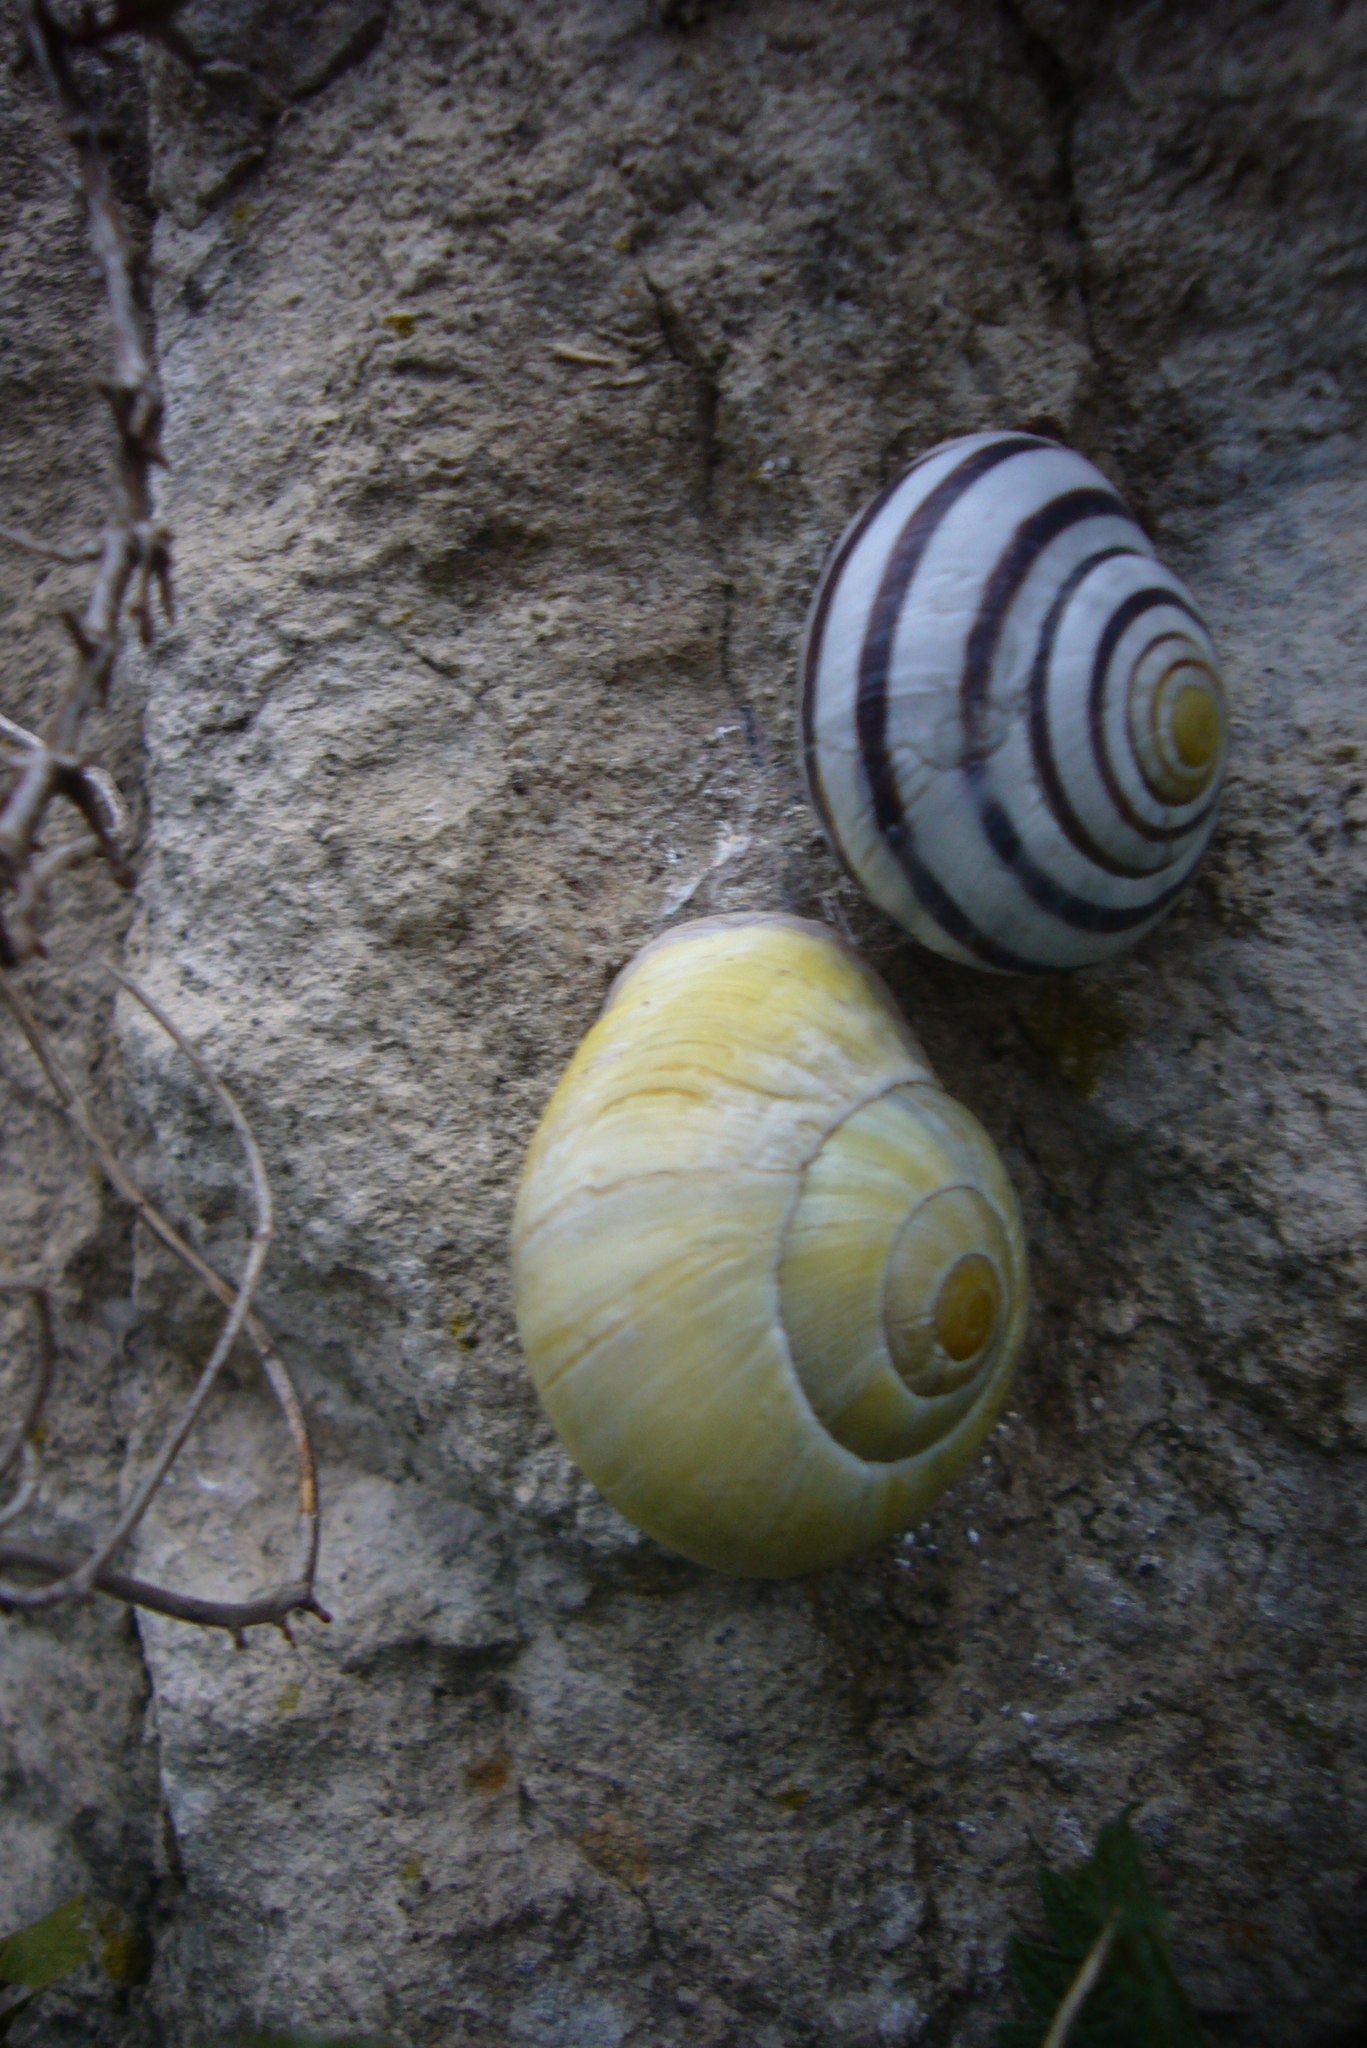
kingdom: Animalia
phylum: Mollusca
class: Gastropoda
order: Stylommatophora
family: Helicidae
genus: Cepaea
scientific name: Cepaea hortensis
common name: White-lip gardensnail
